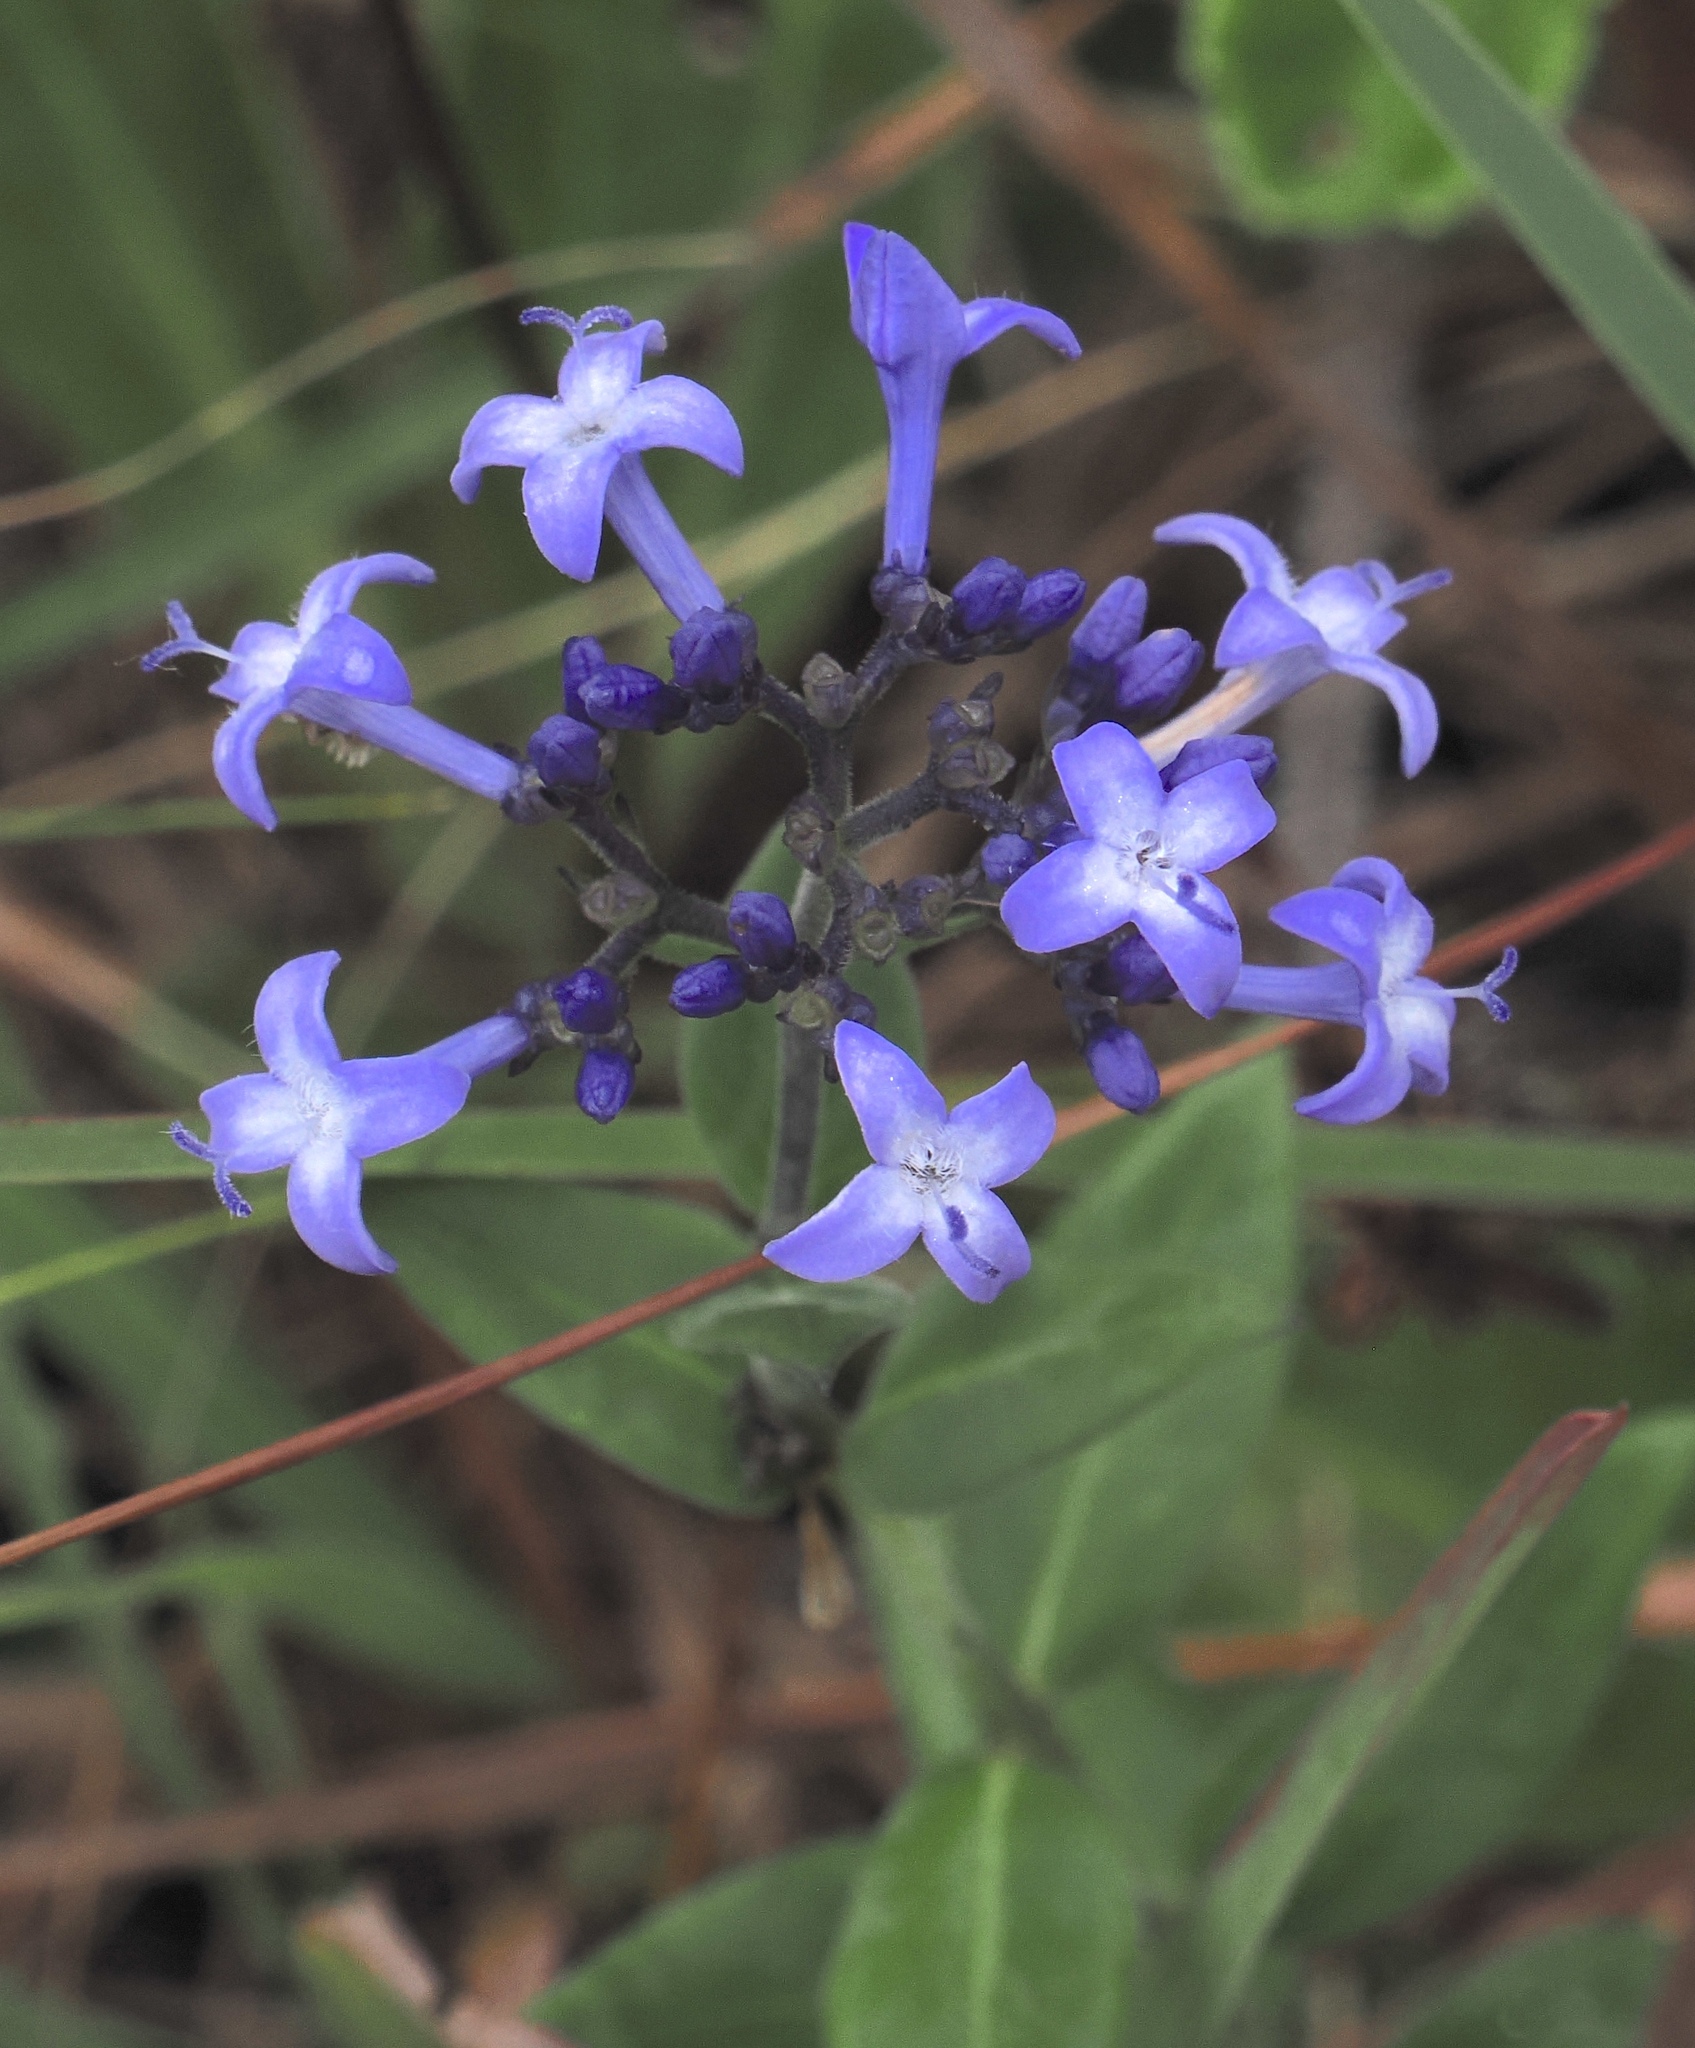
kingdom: Plantae
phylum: Tracheophyta
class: Magnoliopsida
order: Gentianales
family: Rubiaceae
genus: Declieuxia
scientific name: Declieuxia cordigera
